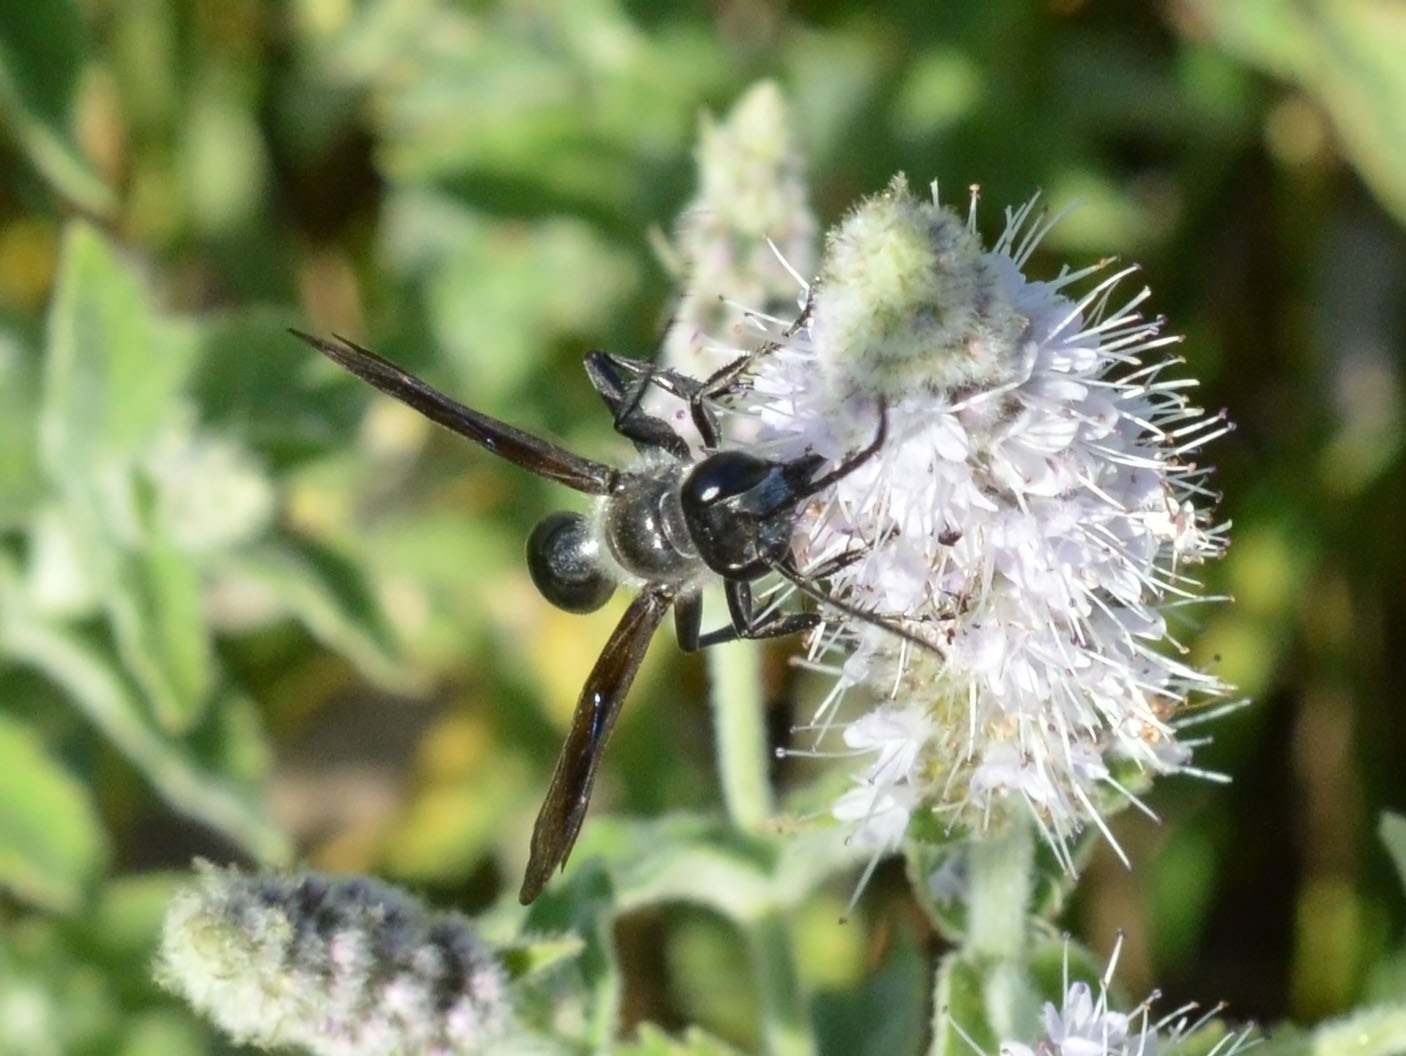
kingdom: Animalia
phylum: Arthropoda
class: Insecta
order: Hymenoptera
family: Sphecidae
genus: Isodontia
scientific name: Isodontia mexicana
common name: Mud dauber
